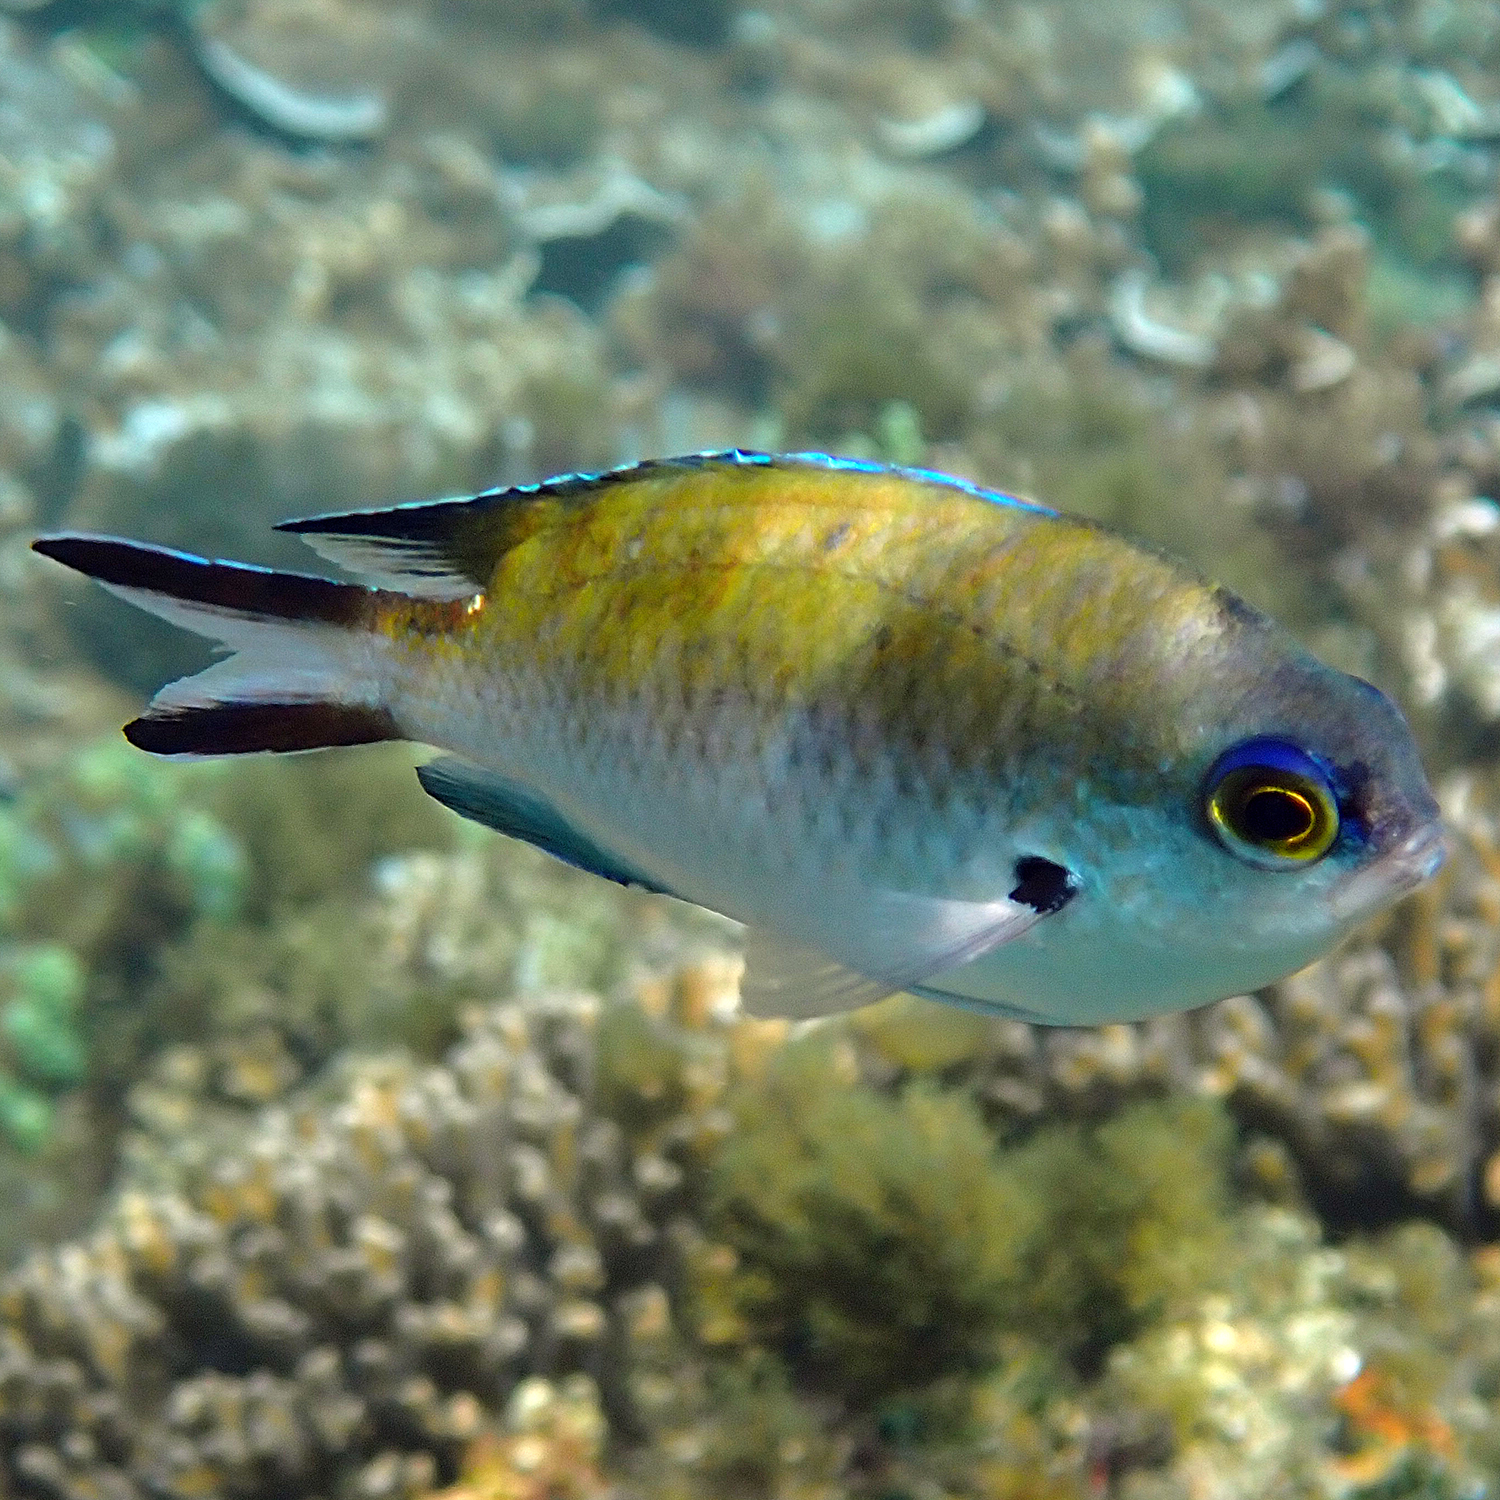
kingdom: Animalia
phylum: Chordata
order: Perciformes
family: Pomacentridae
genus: Chromis
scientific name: Chromis norfolkensis
